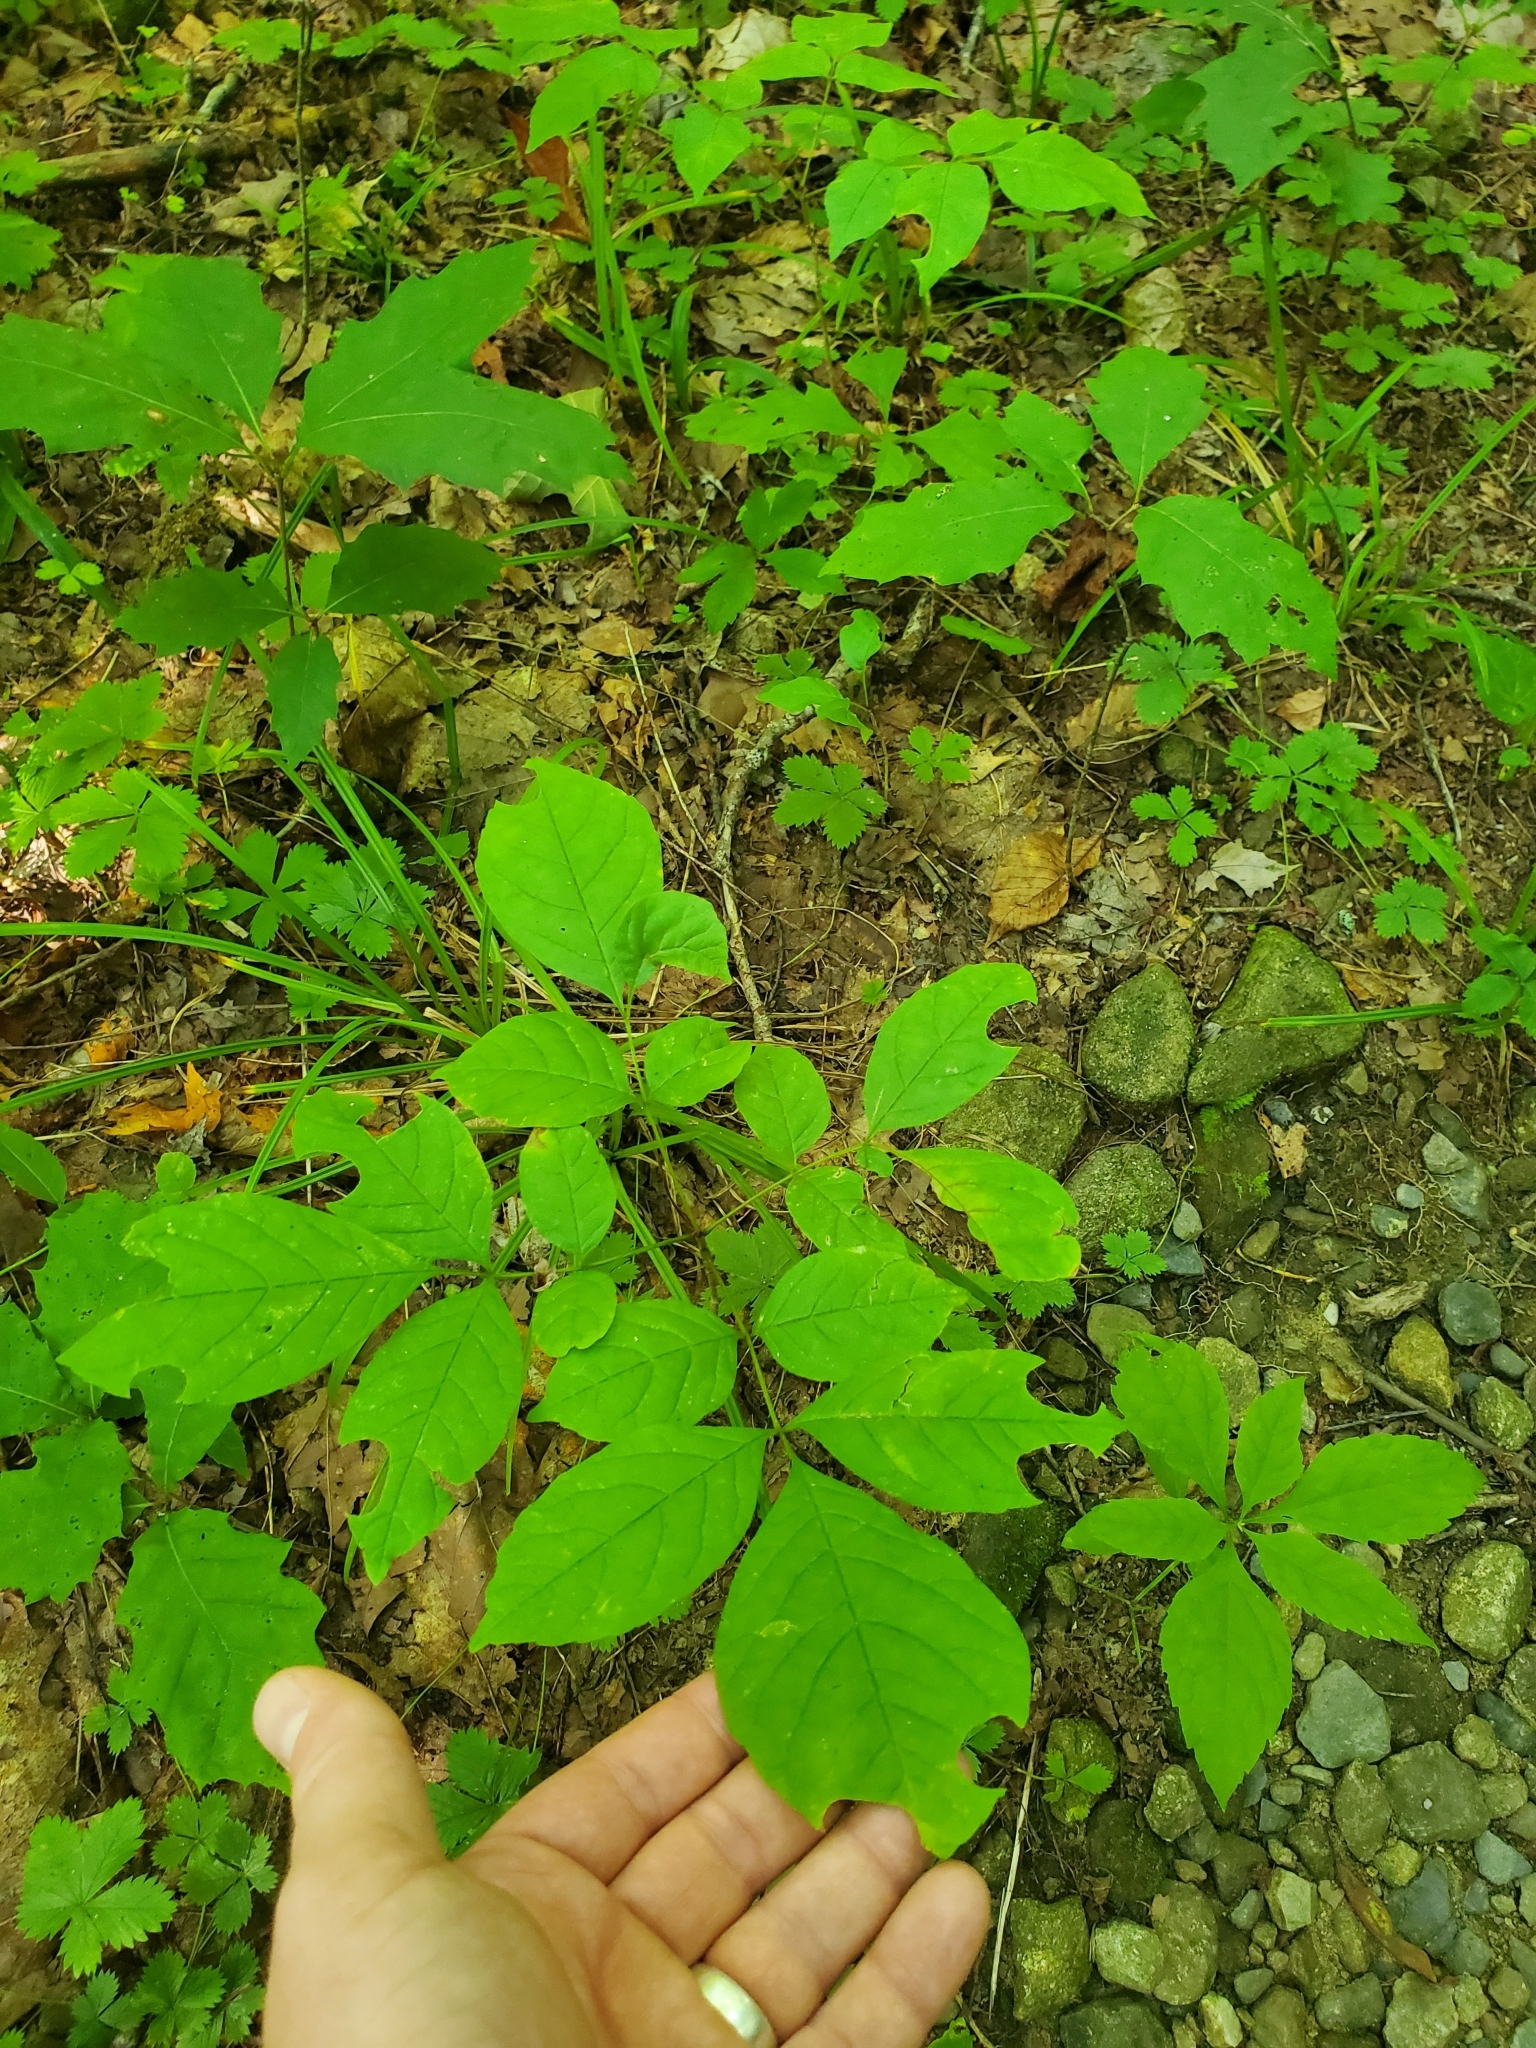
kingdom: Plantae
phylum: Tracheophyta
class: Magnoliopsida
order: Lamiales
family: Oleaceae
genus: Fraxinus
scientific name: Fraxinus pennsylvanica
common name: Green ash
